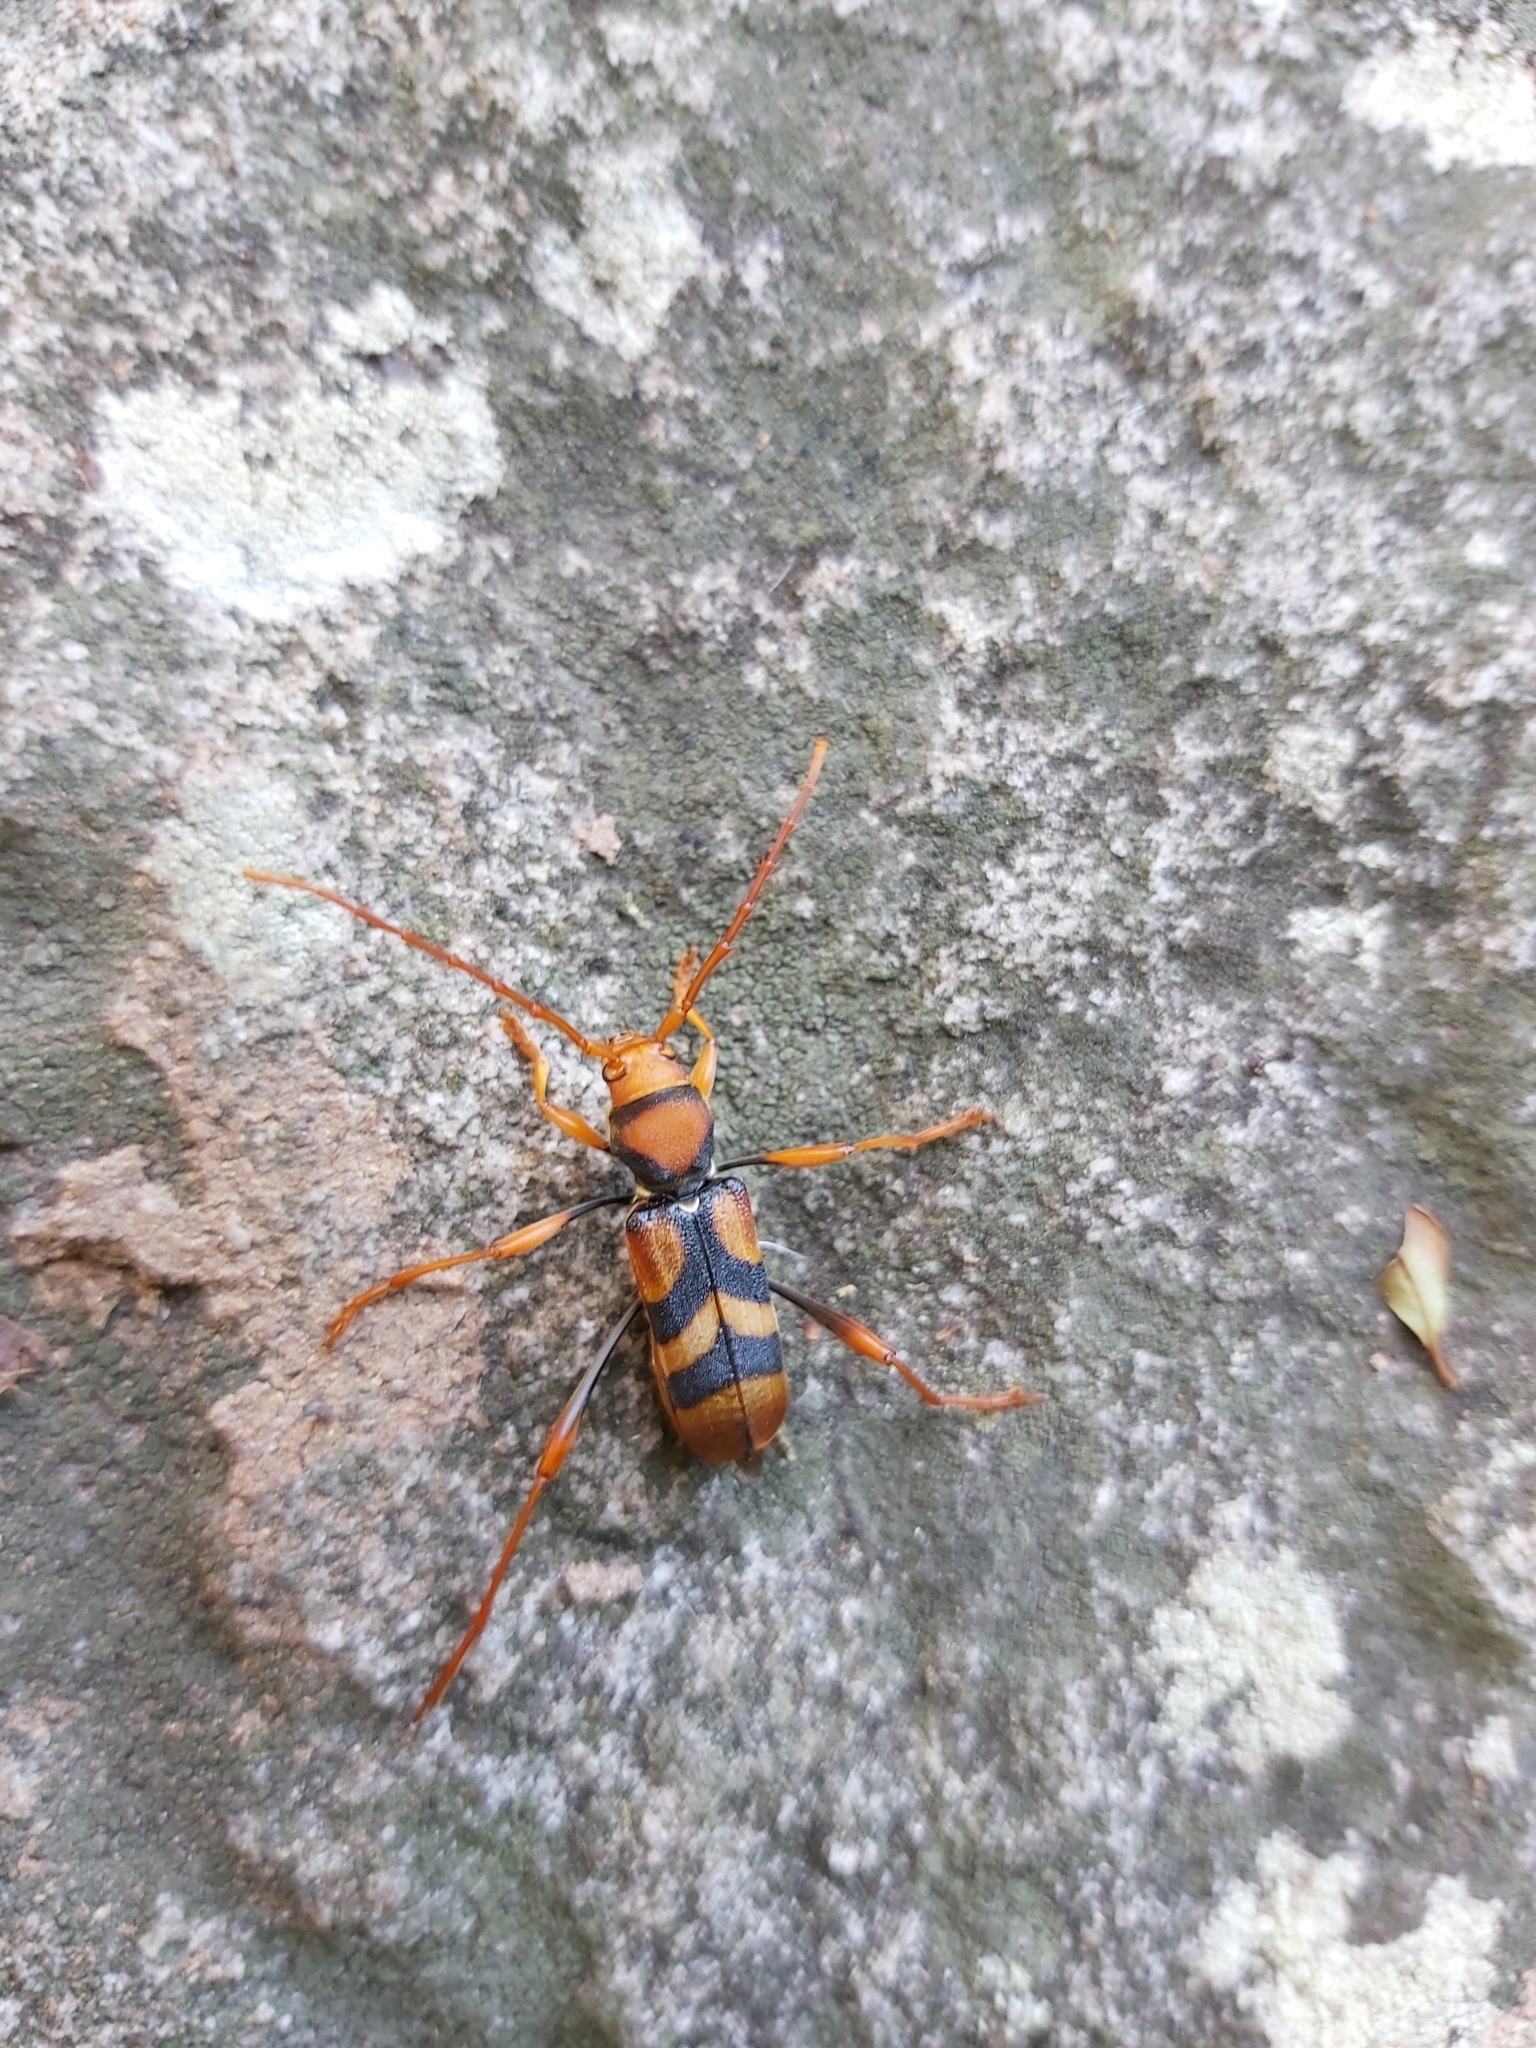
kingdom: Animalia
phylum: Arthropoda
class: Insecta
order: Coleoptera
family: Cerambycidae
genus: Aridaeus
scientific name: Aridaeus thoracicus
